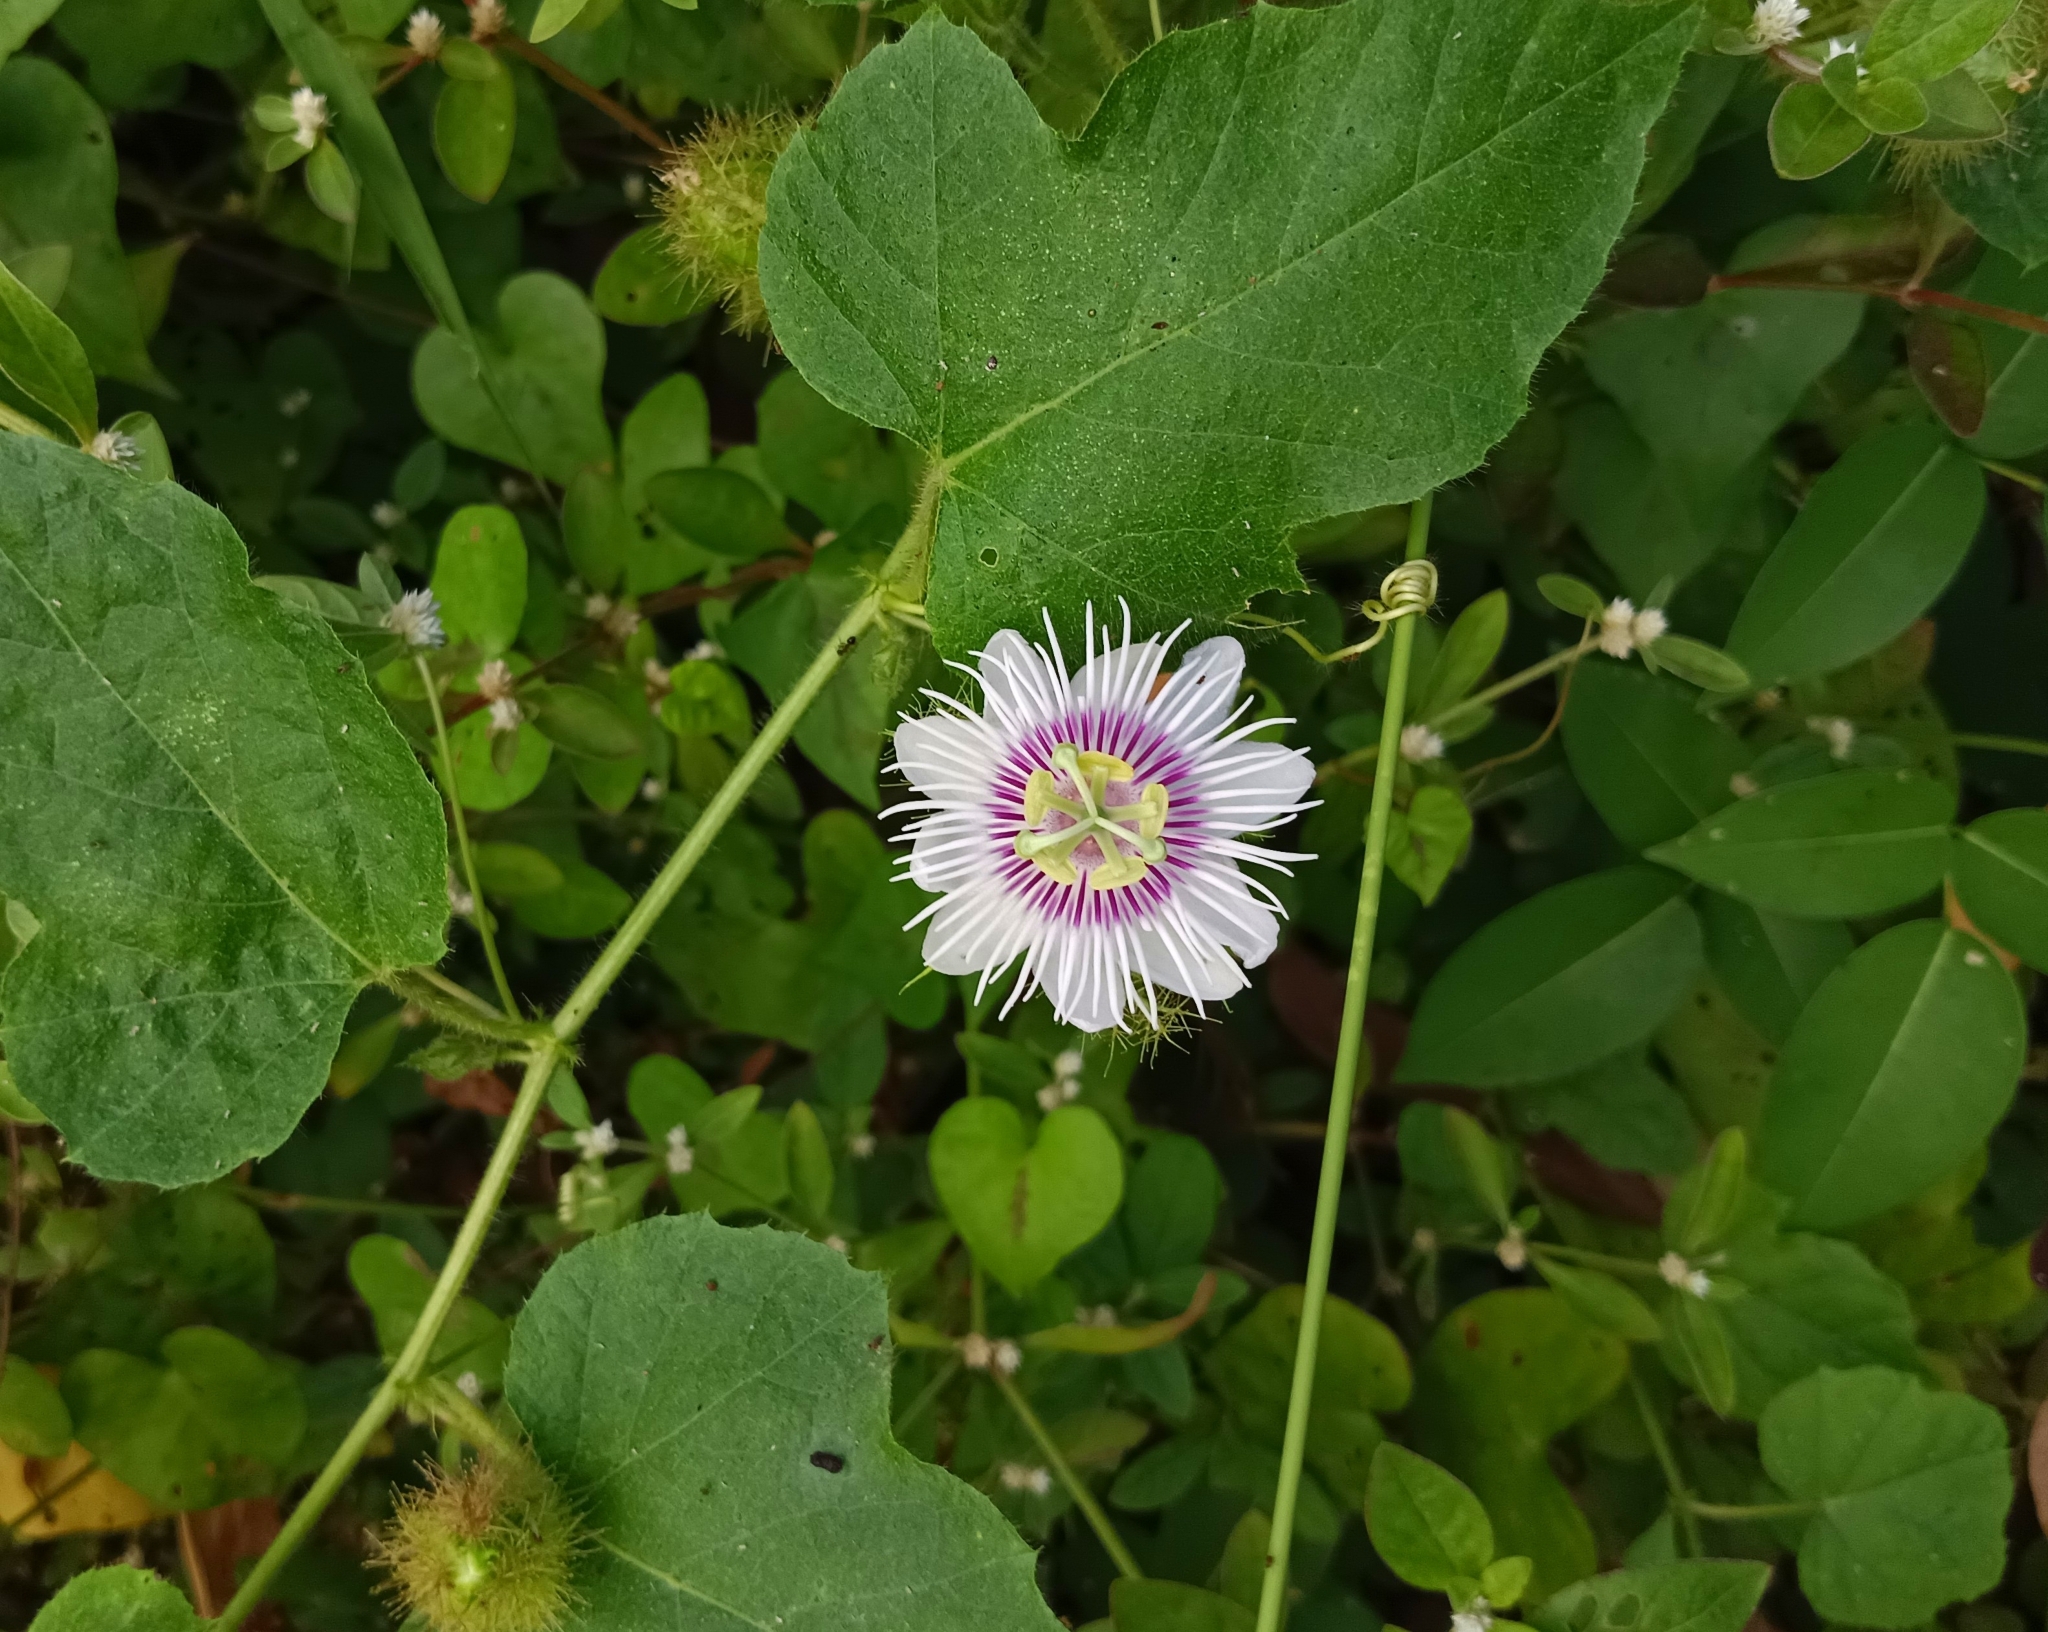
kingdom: Plantae
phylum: Tracheophyta
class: Magnoliopsida
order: Malpighiales
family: Passifloraceae
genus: Passiflora
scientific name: Passiflora vesicaria
